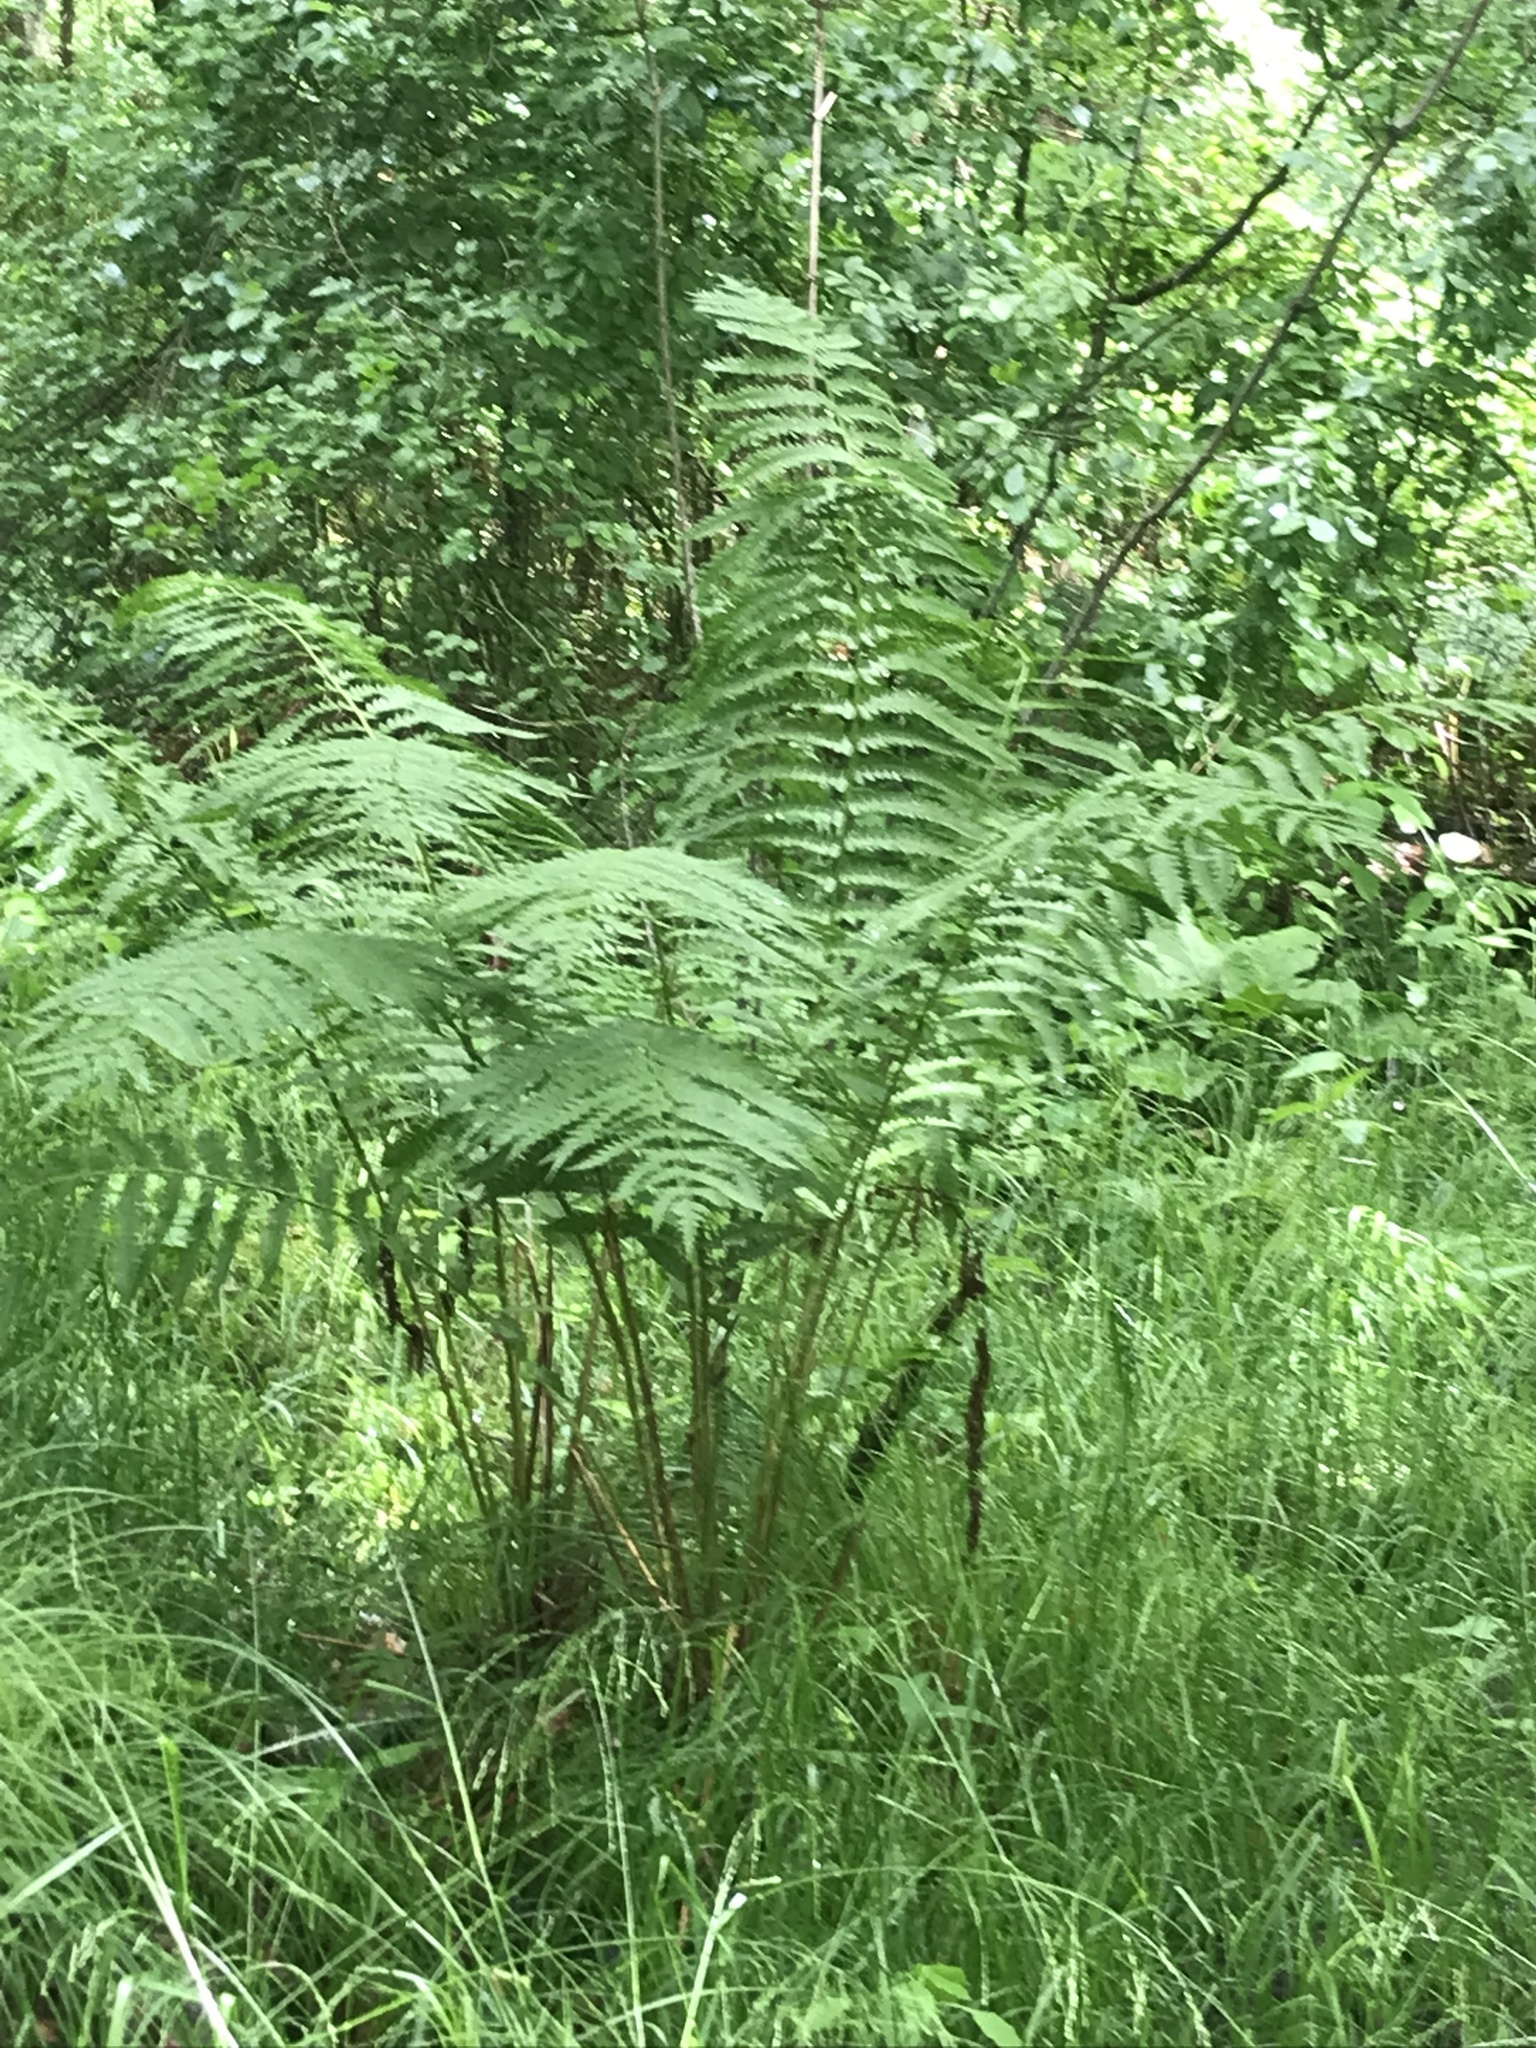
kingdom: Plantae
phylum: Tracheophyta
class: Polypodiopsida
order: Osmundales
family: Osmundaceae
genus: Osmundastrum
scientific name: Osmundastrum cinnamomeum
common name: Cinnamon fern
